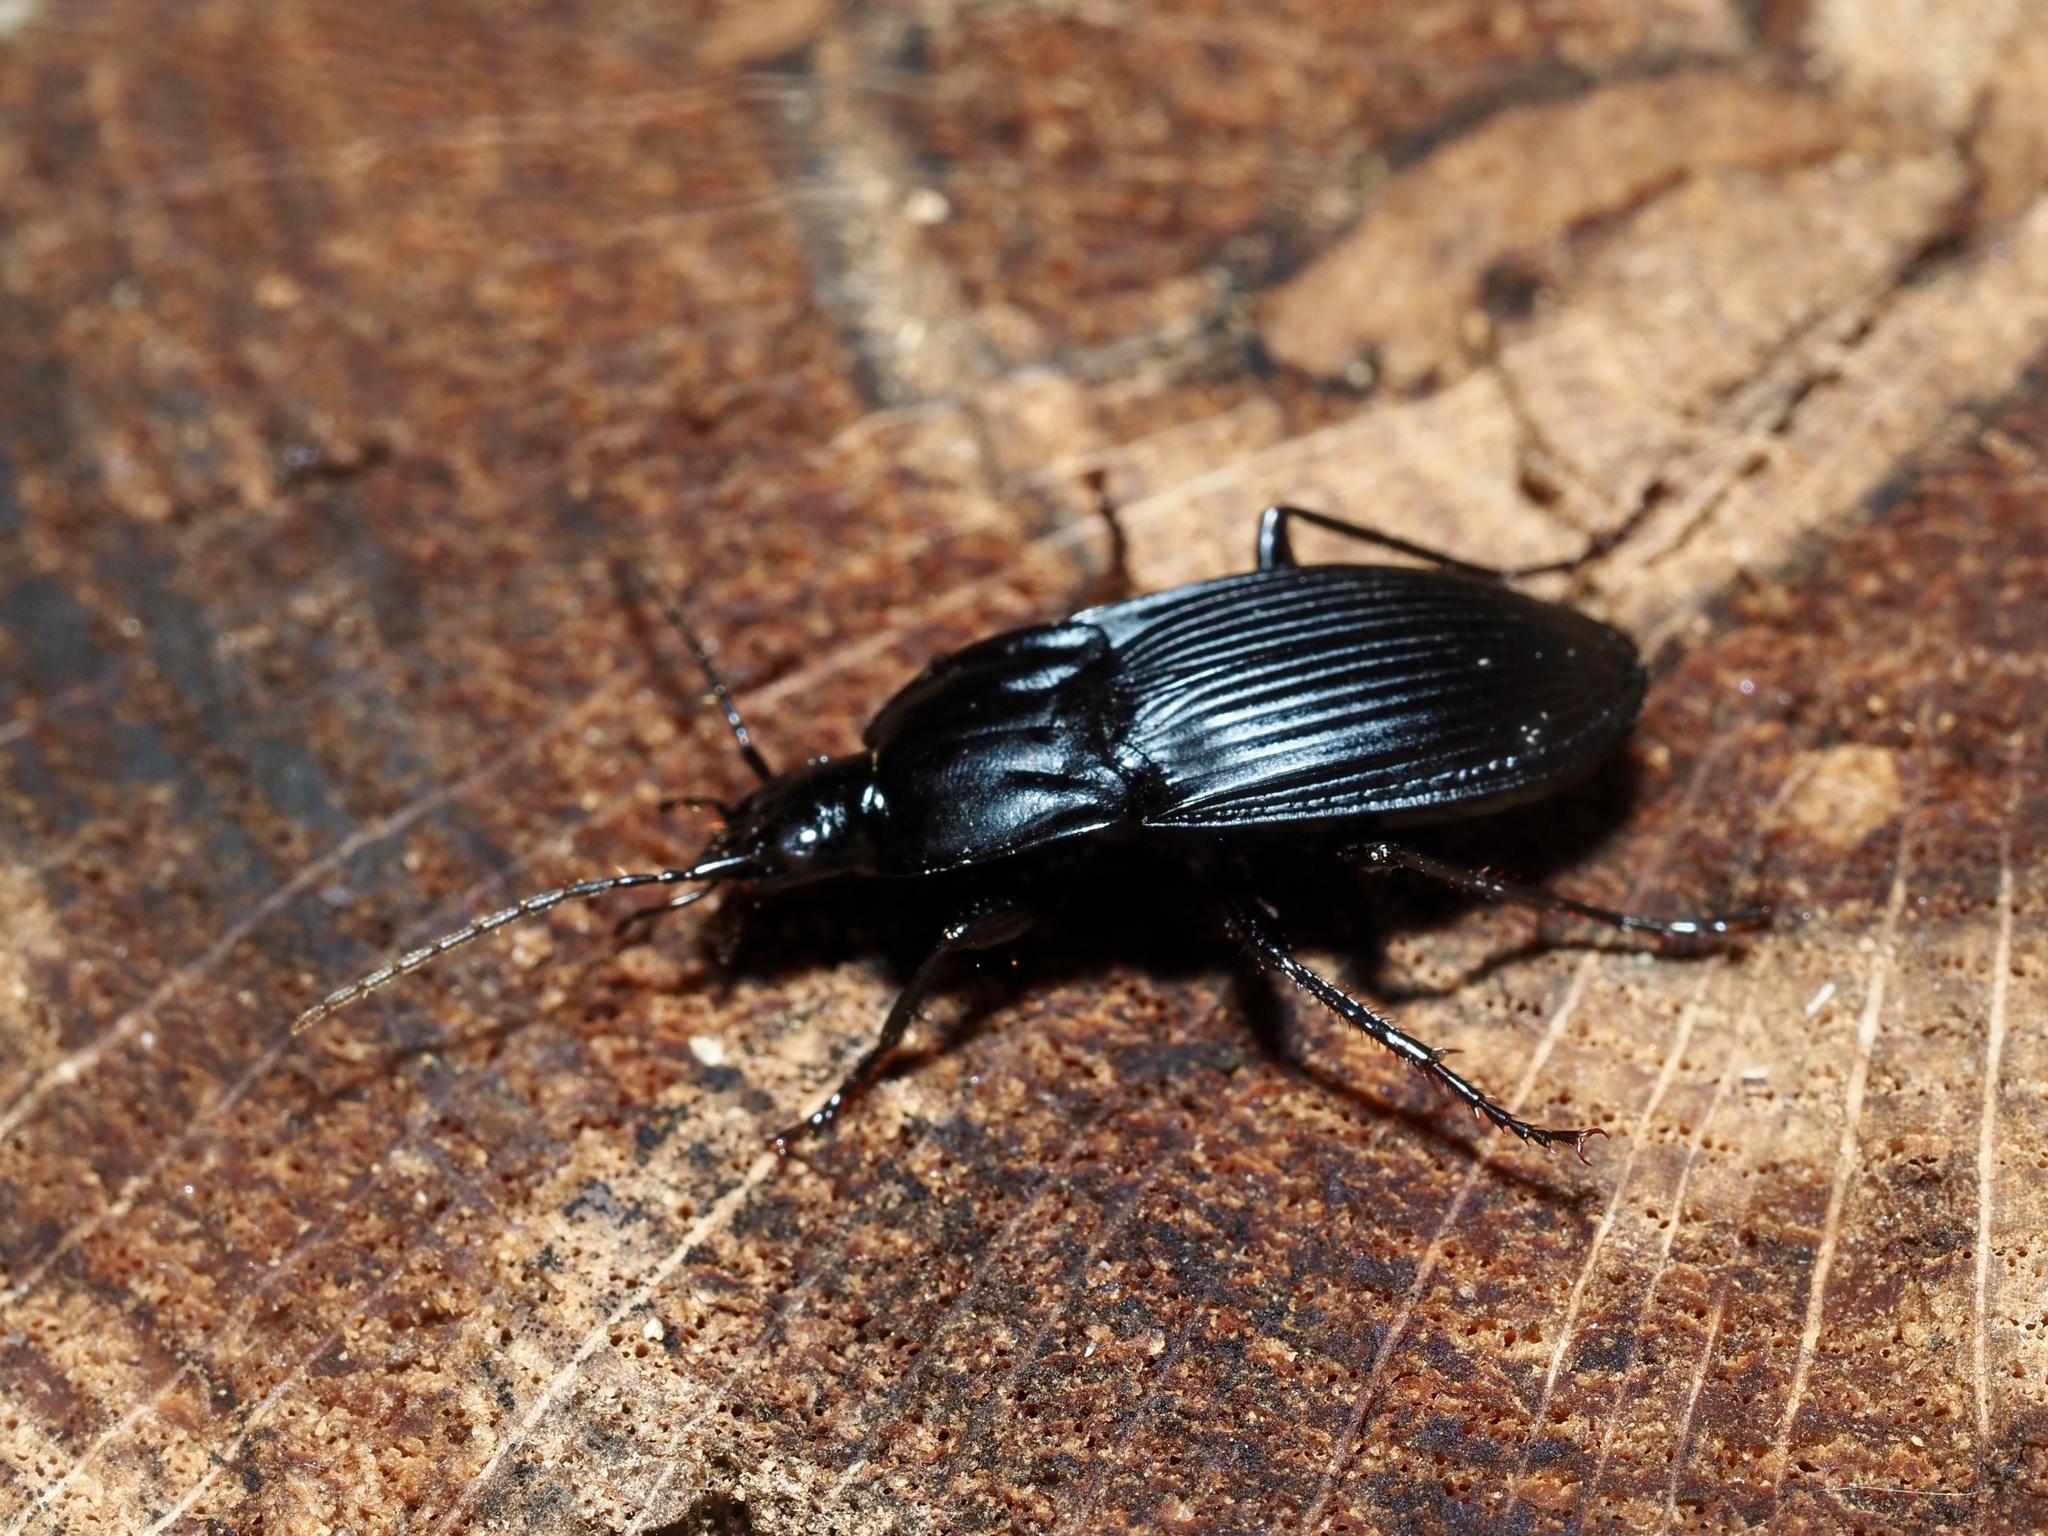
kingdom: Animalia
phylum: Arthropoda
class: Insecta
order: Coleoptera
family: Carabidae
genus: Dicaelus
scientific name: Dicaelus dilatatus
